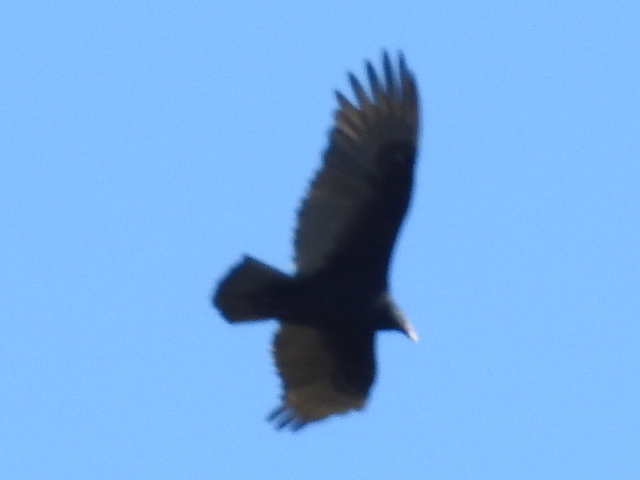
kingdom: Animalia
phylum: Chordata
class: Aves
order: Accipitriformes
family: Cathartidae
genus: Cathartes
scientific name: Cathartes aura
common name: Turkey vulture
